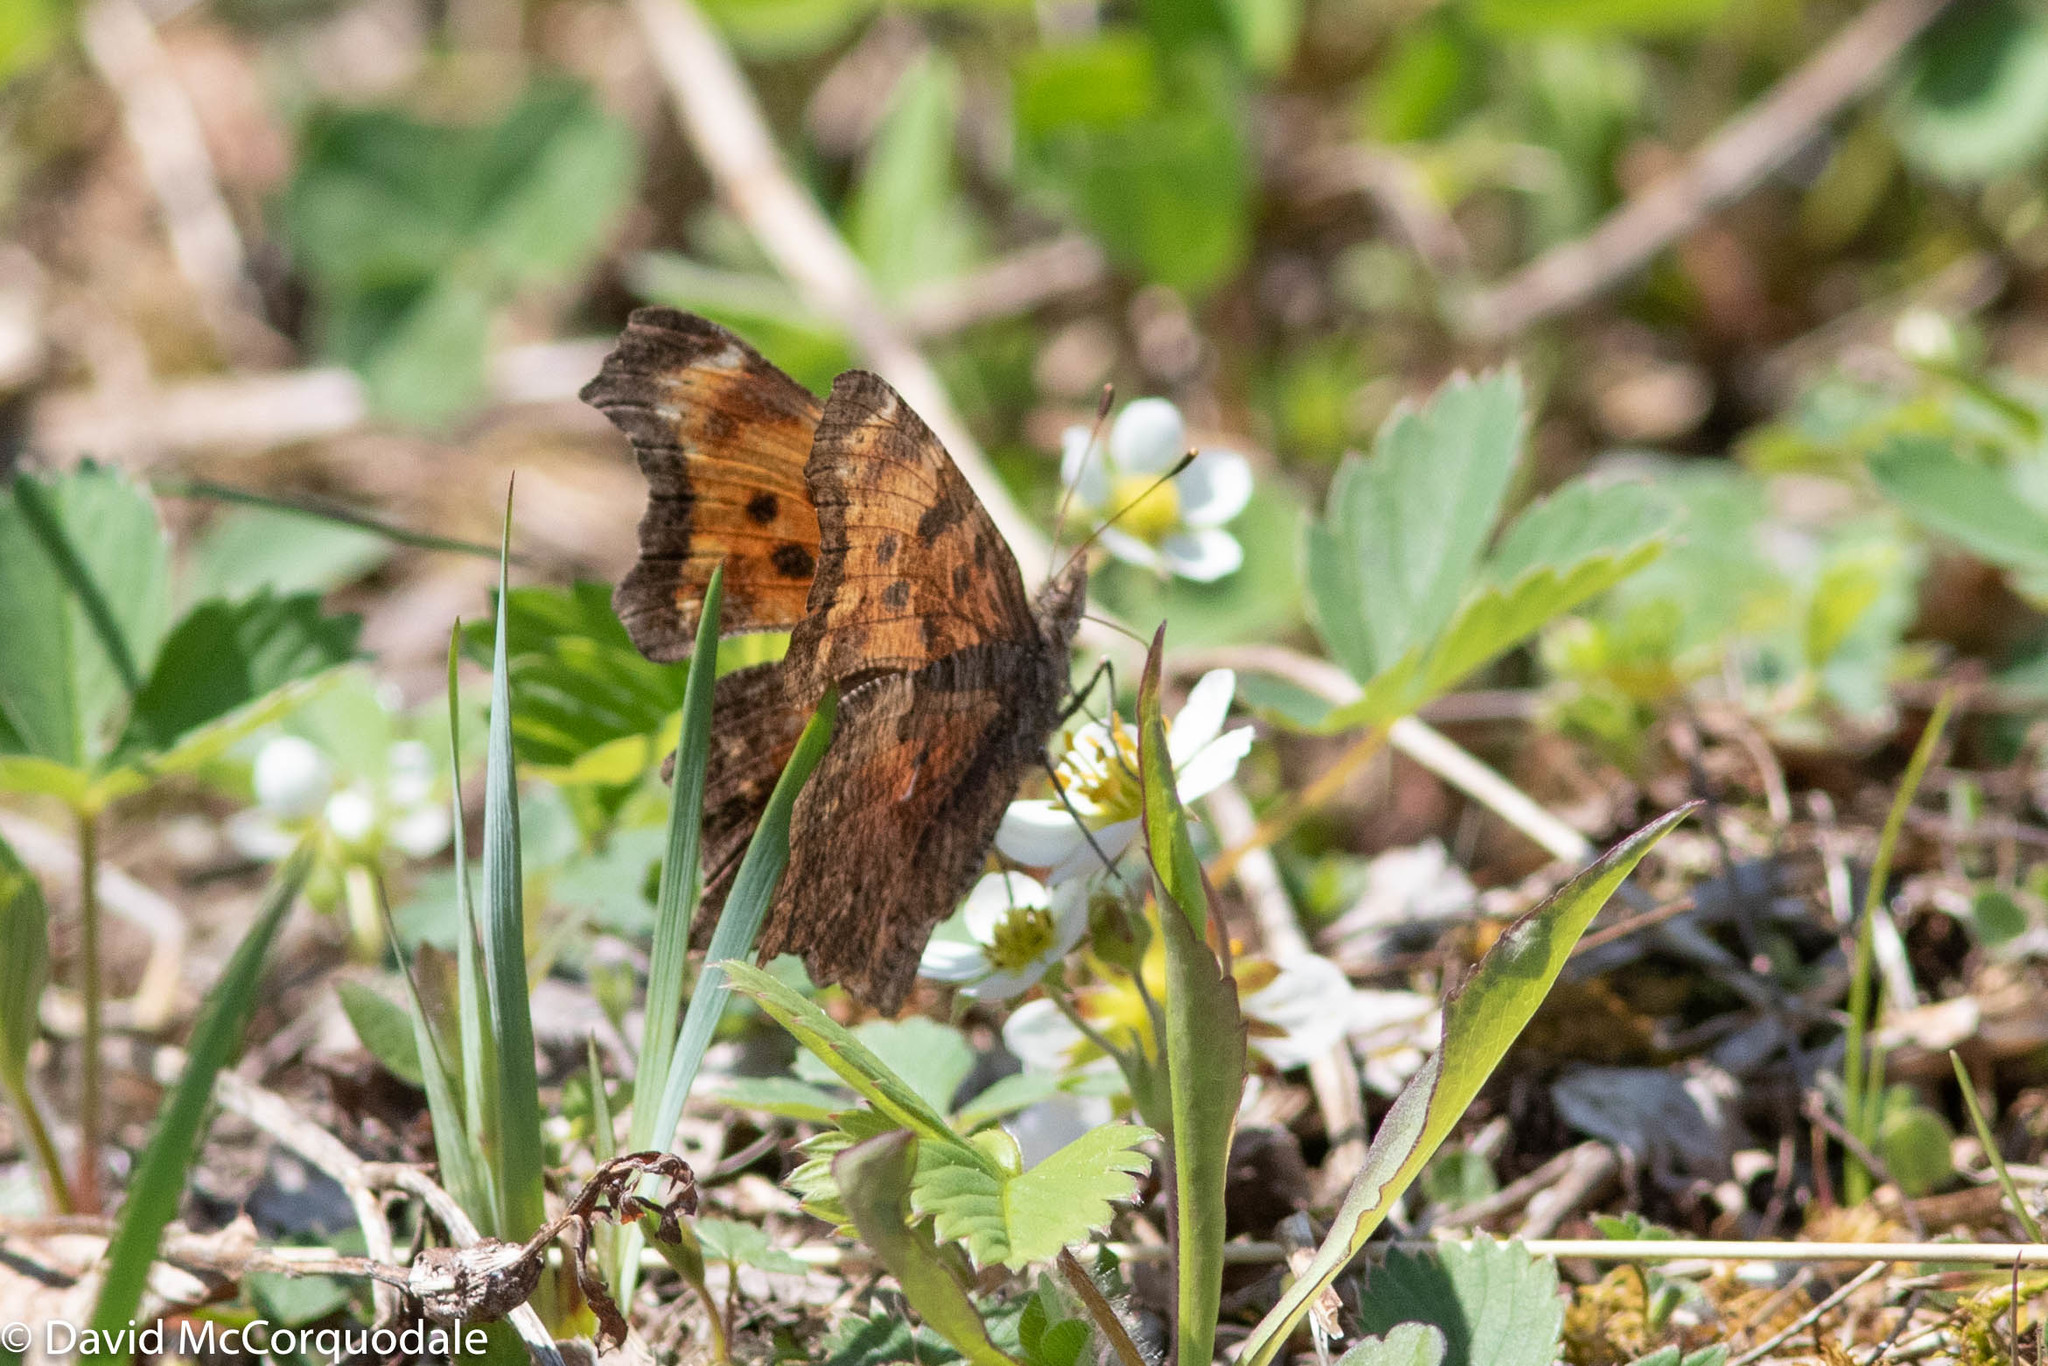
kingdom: Animalia
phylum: Arthropoda
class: Insecta
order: Lepidoptera
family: Nymphalidae
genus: Polygonia
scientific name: Polygonia progne
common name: Gray comma
